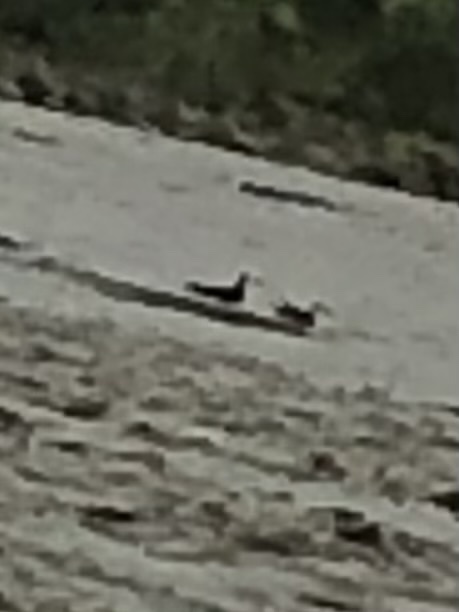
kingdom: Animalia
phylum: Chordata
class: Aves
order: Charadriiformes
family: Laridae
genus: Rynchops
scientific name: Rynchops niger
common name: Black skimmer
